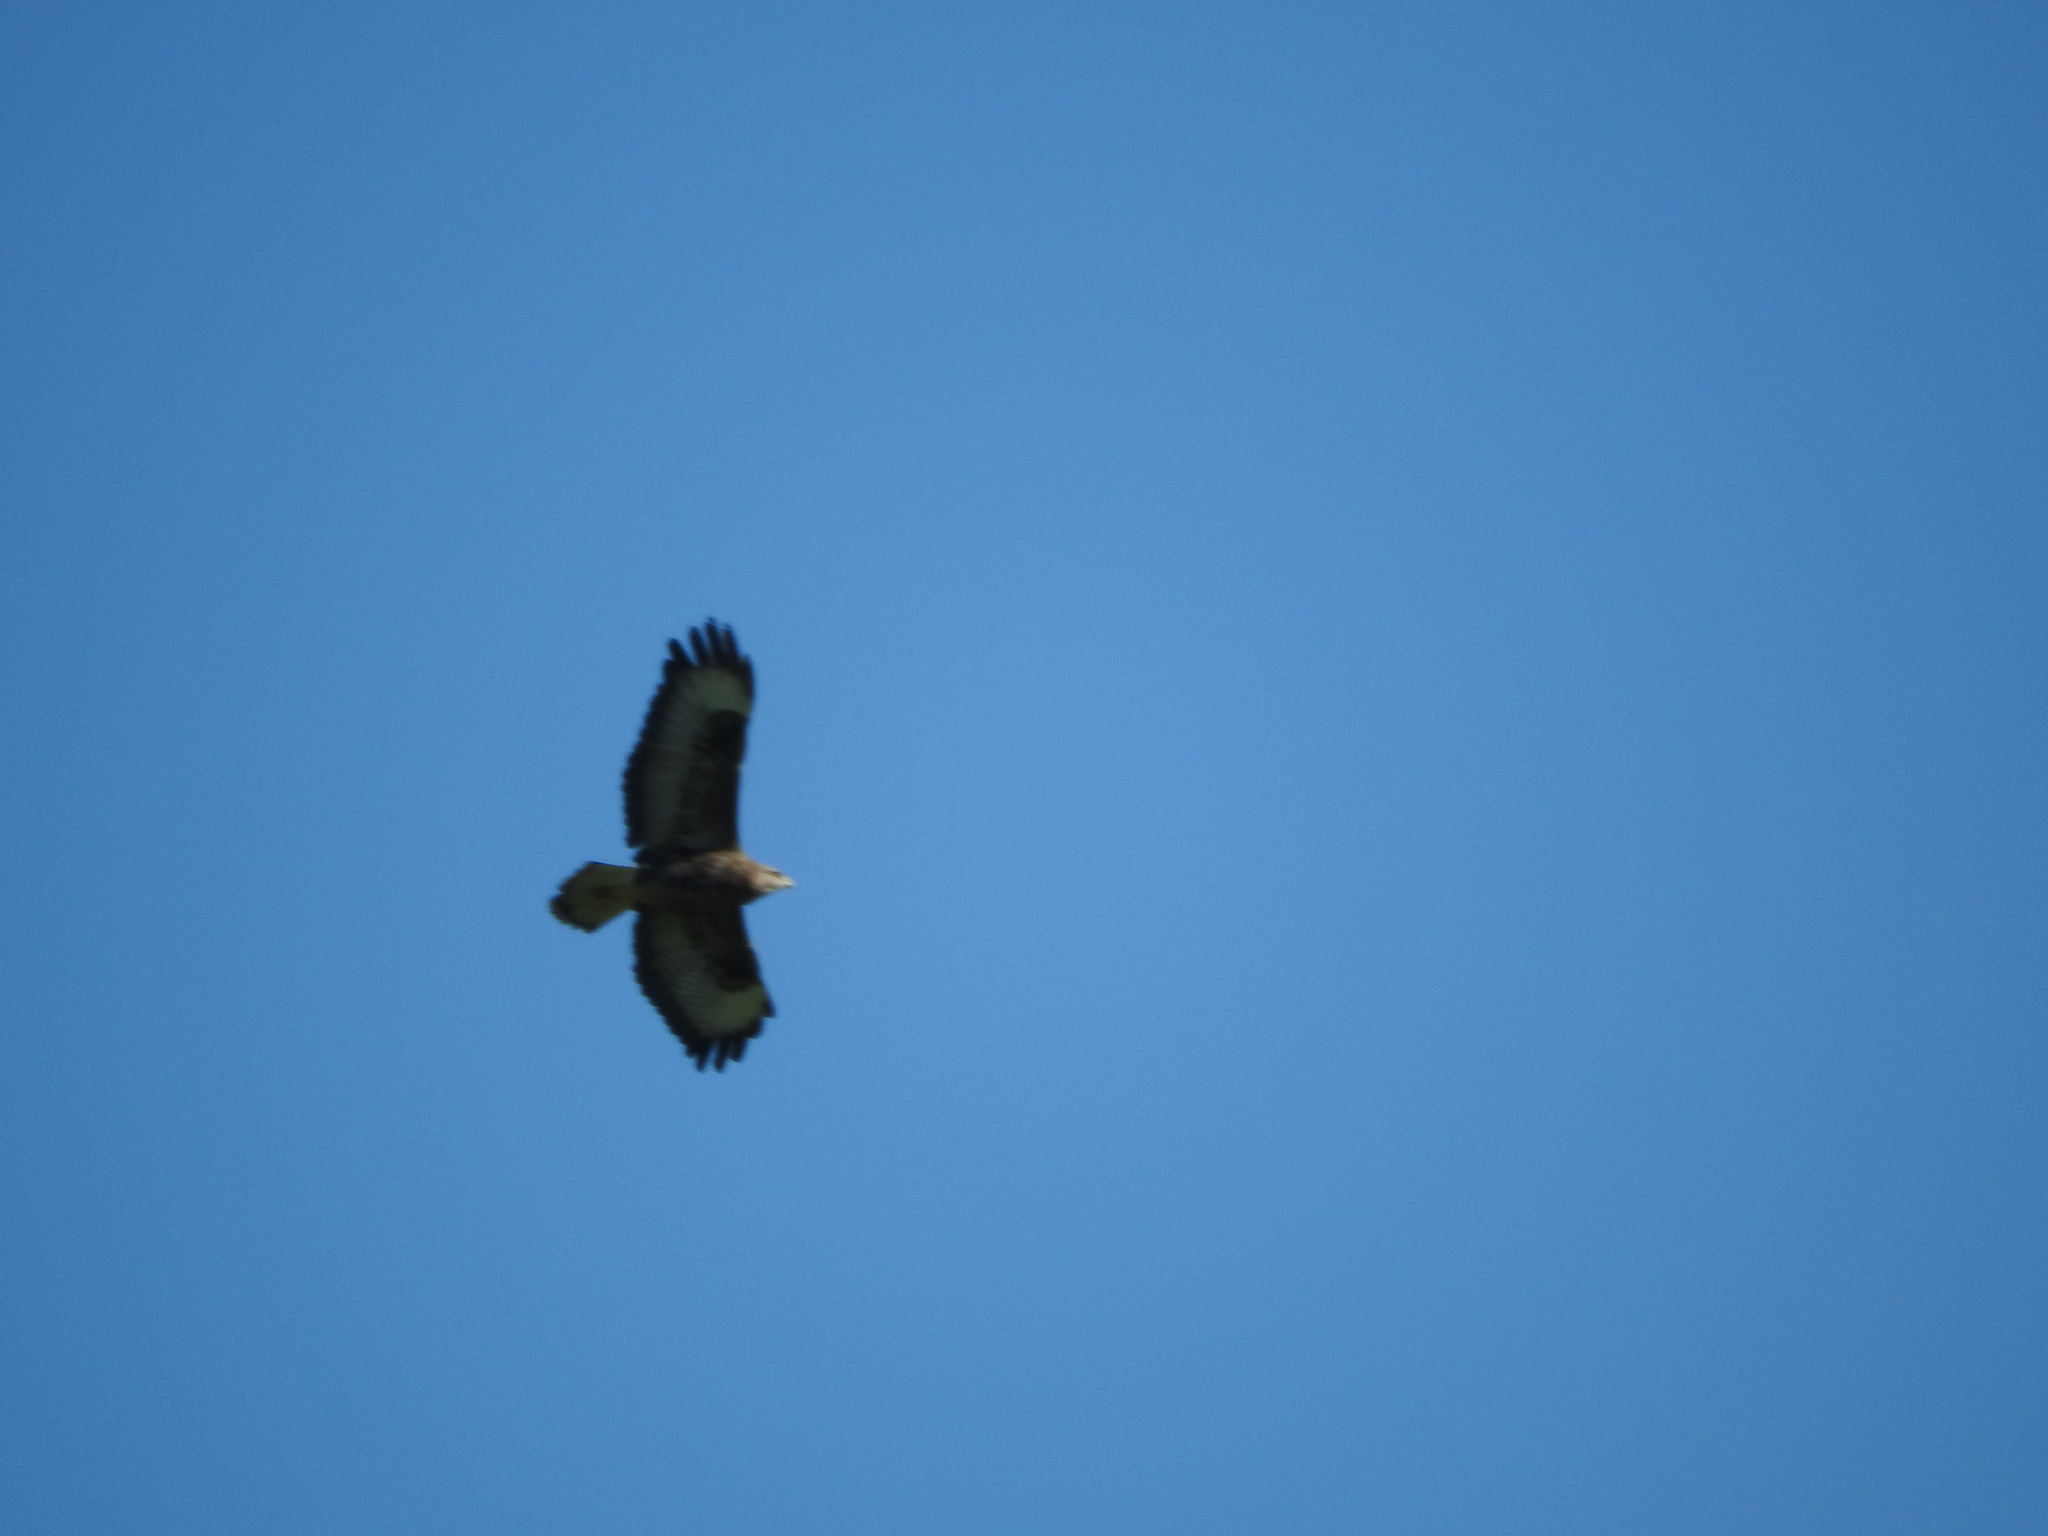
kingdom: Animalia
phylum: Chordata
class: Aves
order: Accipitriformes
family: Accipitridae
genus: Buteo
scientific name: Buteo buteo
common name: Common buzzard
